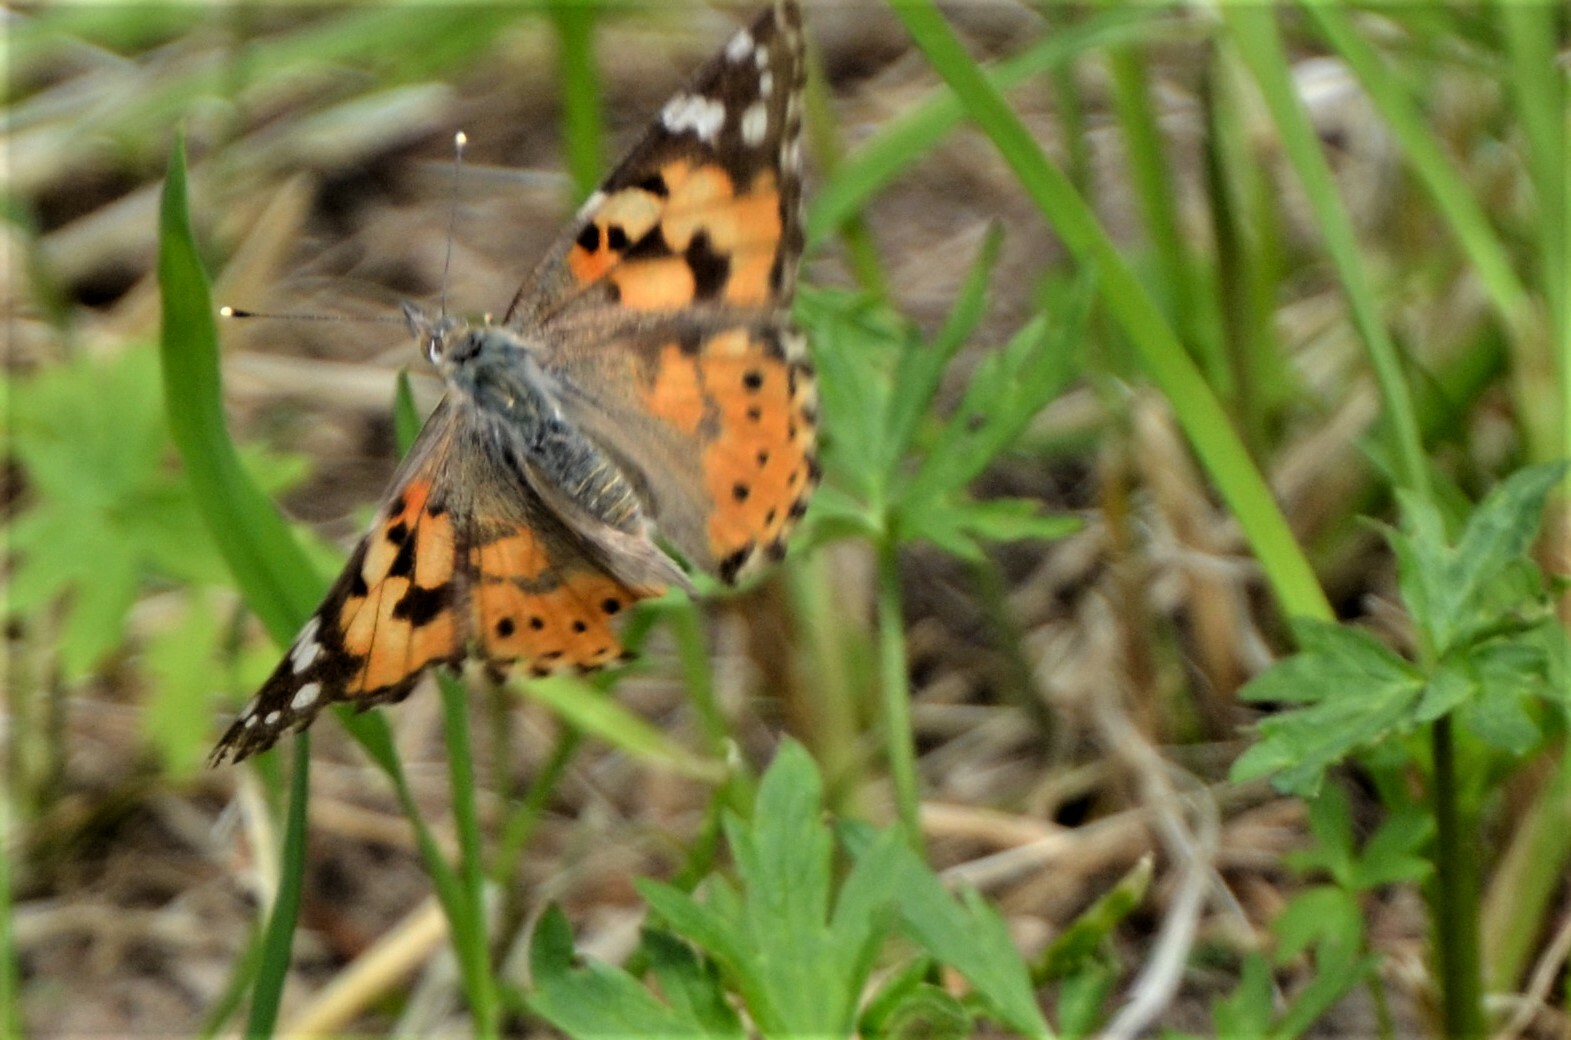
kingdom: Animalia
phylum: Arthropoda
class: Insecta
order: Lepidoptera
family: Nymphalidae
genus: Vanessa
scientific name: Vanessa cardui
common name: Painted lady
